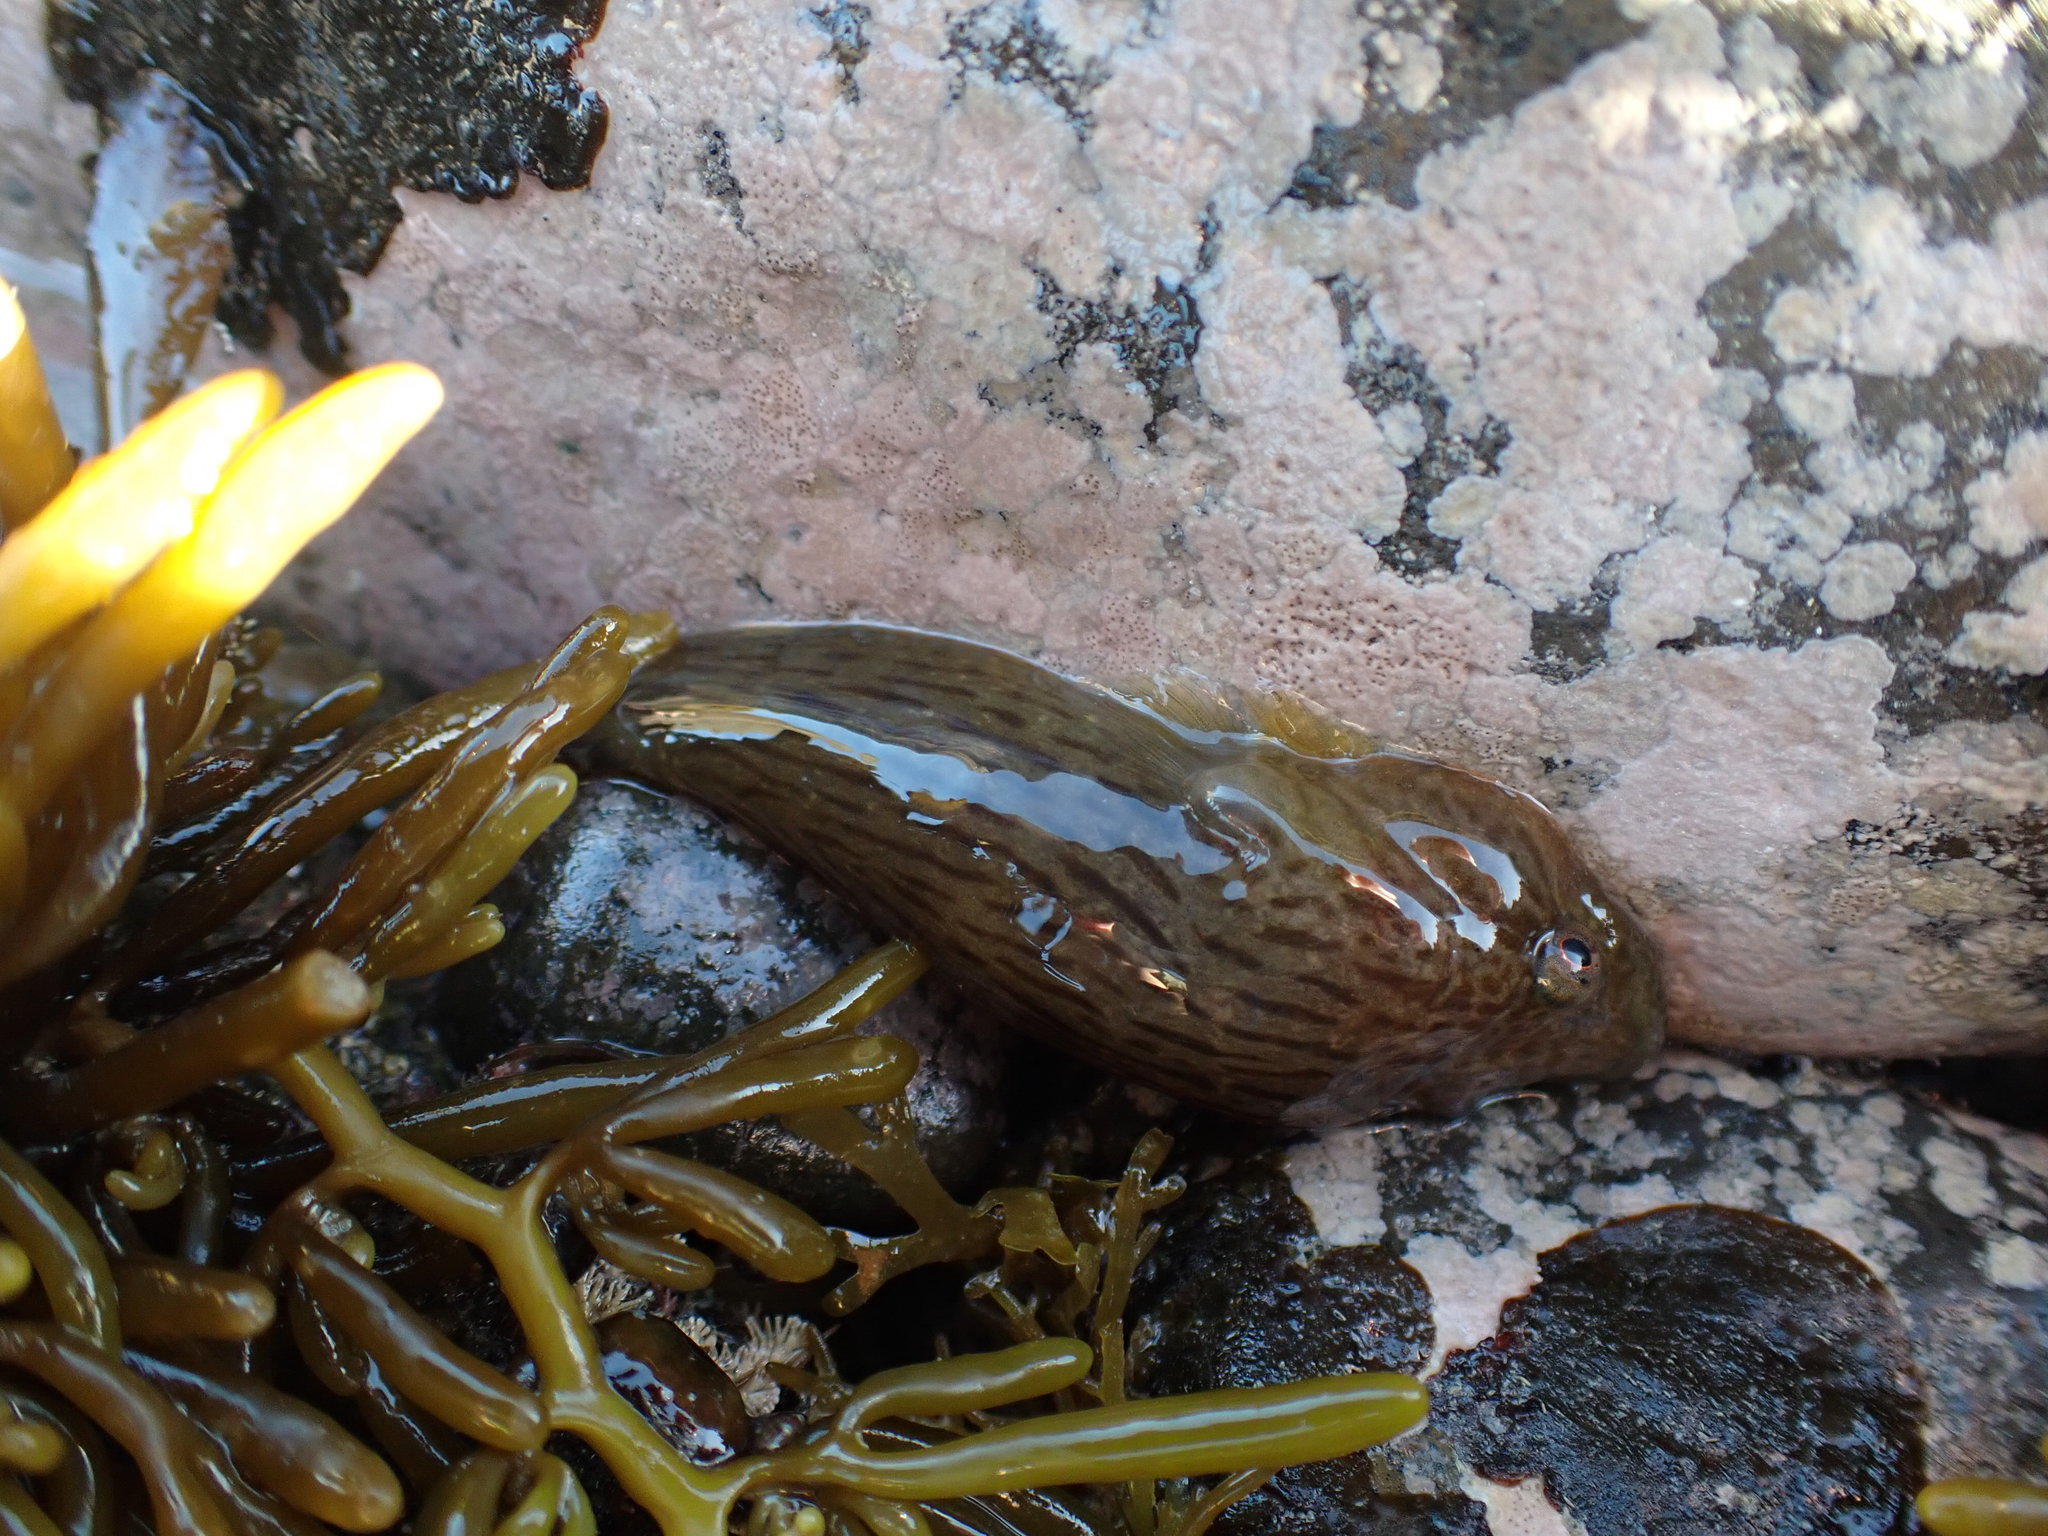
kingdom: Animalia
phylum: Chordata
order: Gobiesociformes
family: Gobiesocidae
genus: Trachelochismus
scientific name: Trachelochismus pinnulatus
